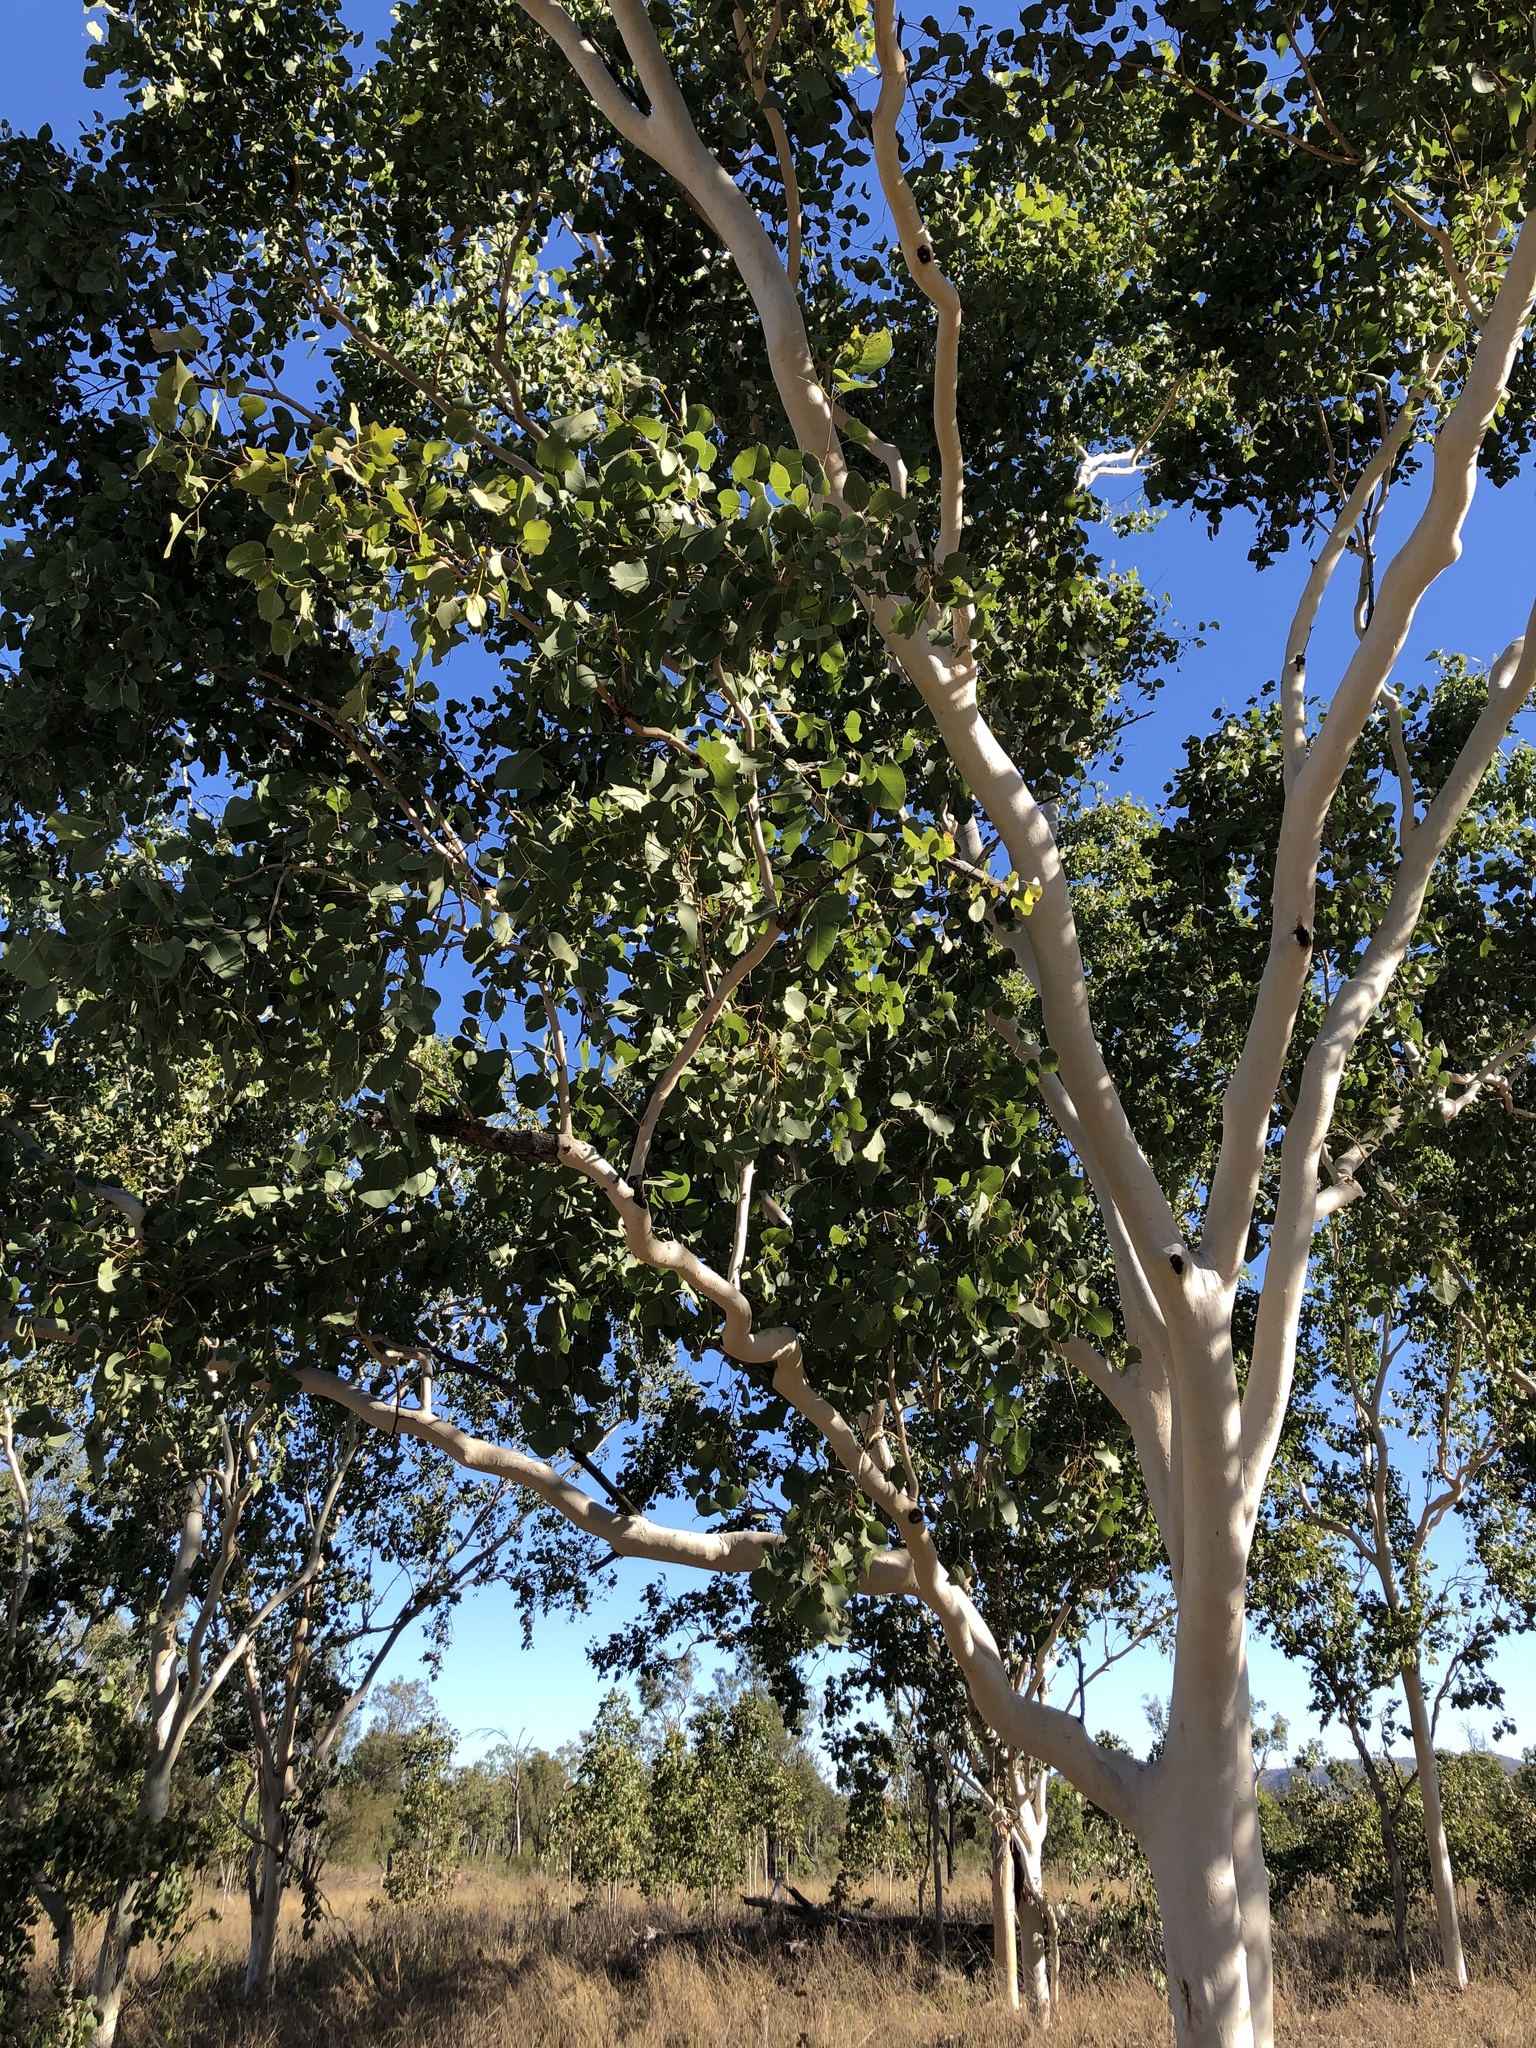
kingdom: Plantae
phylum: Tracheophyta
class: Magnoliopsida
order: Myrtales
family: Myrtaceae
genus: Eucalyptus
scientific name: Eucalyptus platyphylla
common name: Poplar-gum
